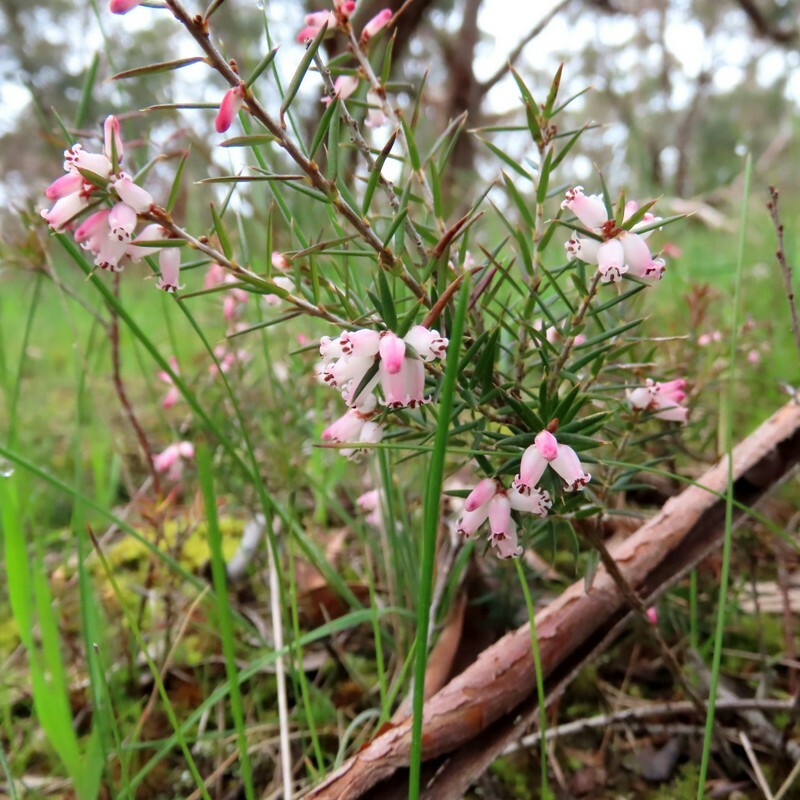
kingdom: Plantae
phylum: Tracheophyta
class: Magnoliopsida
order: Ericales
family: Ericaceae
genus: Lissanthe
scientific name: Lissanthe strigosa
